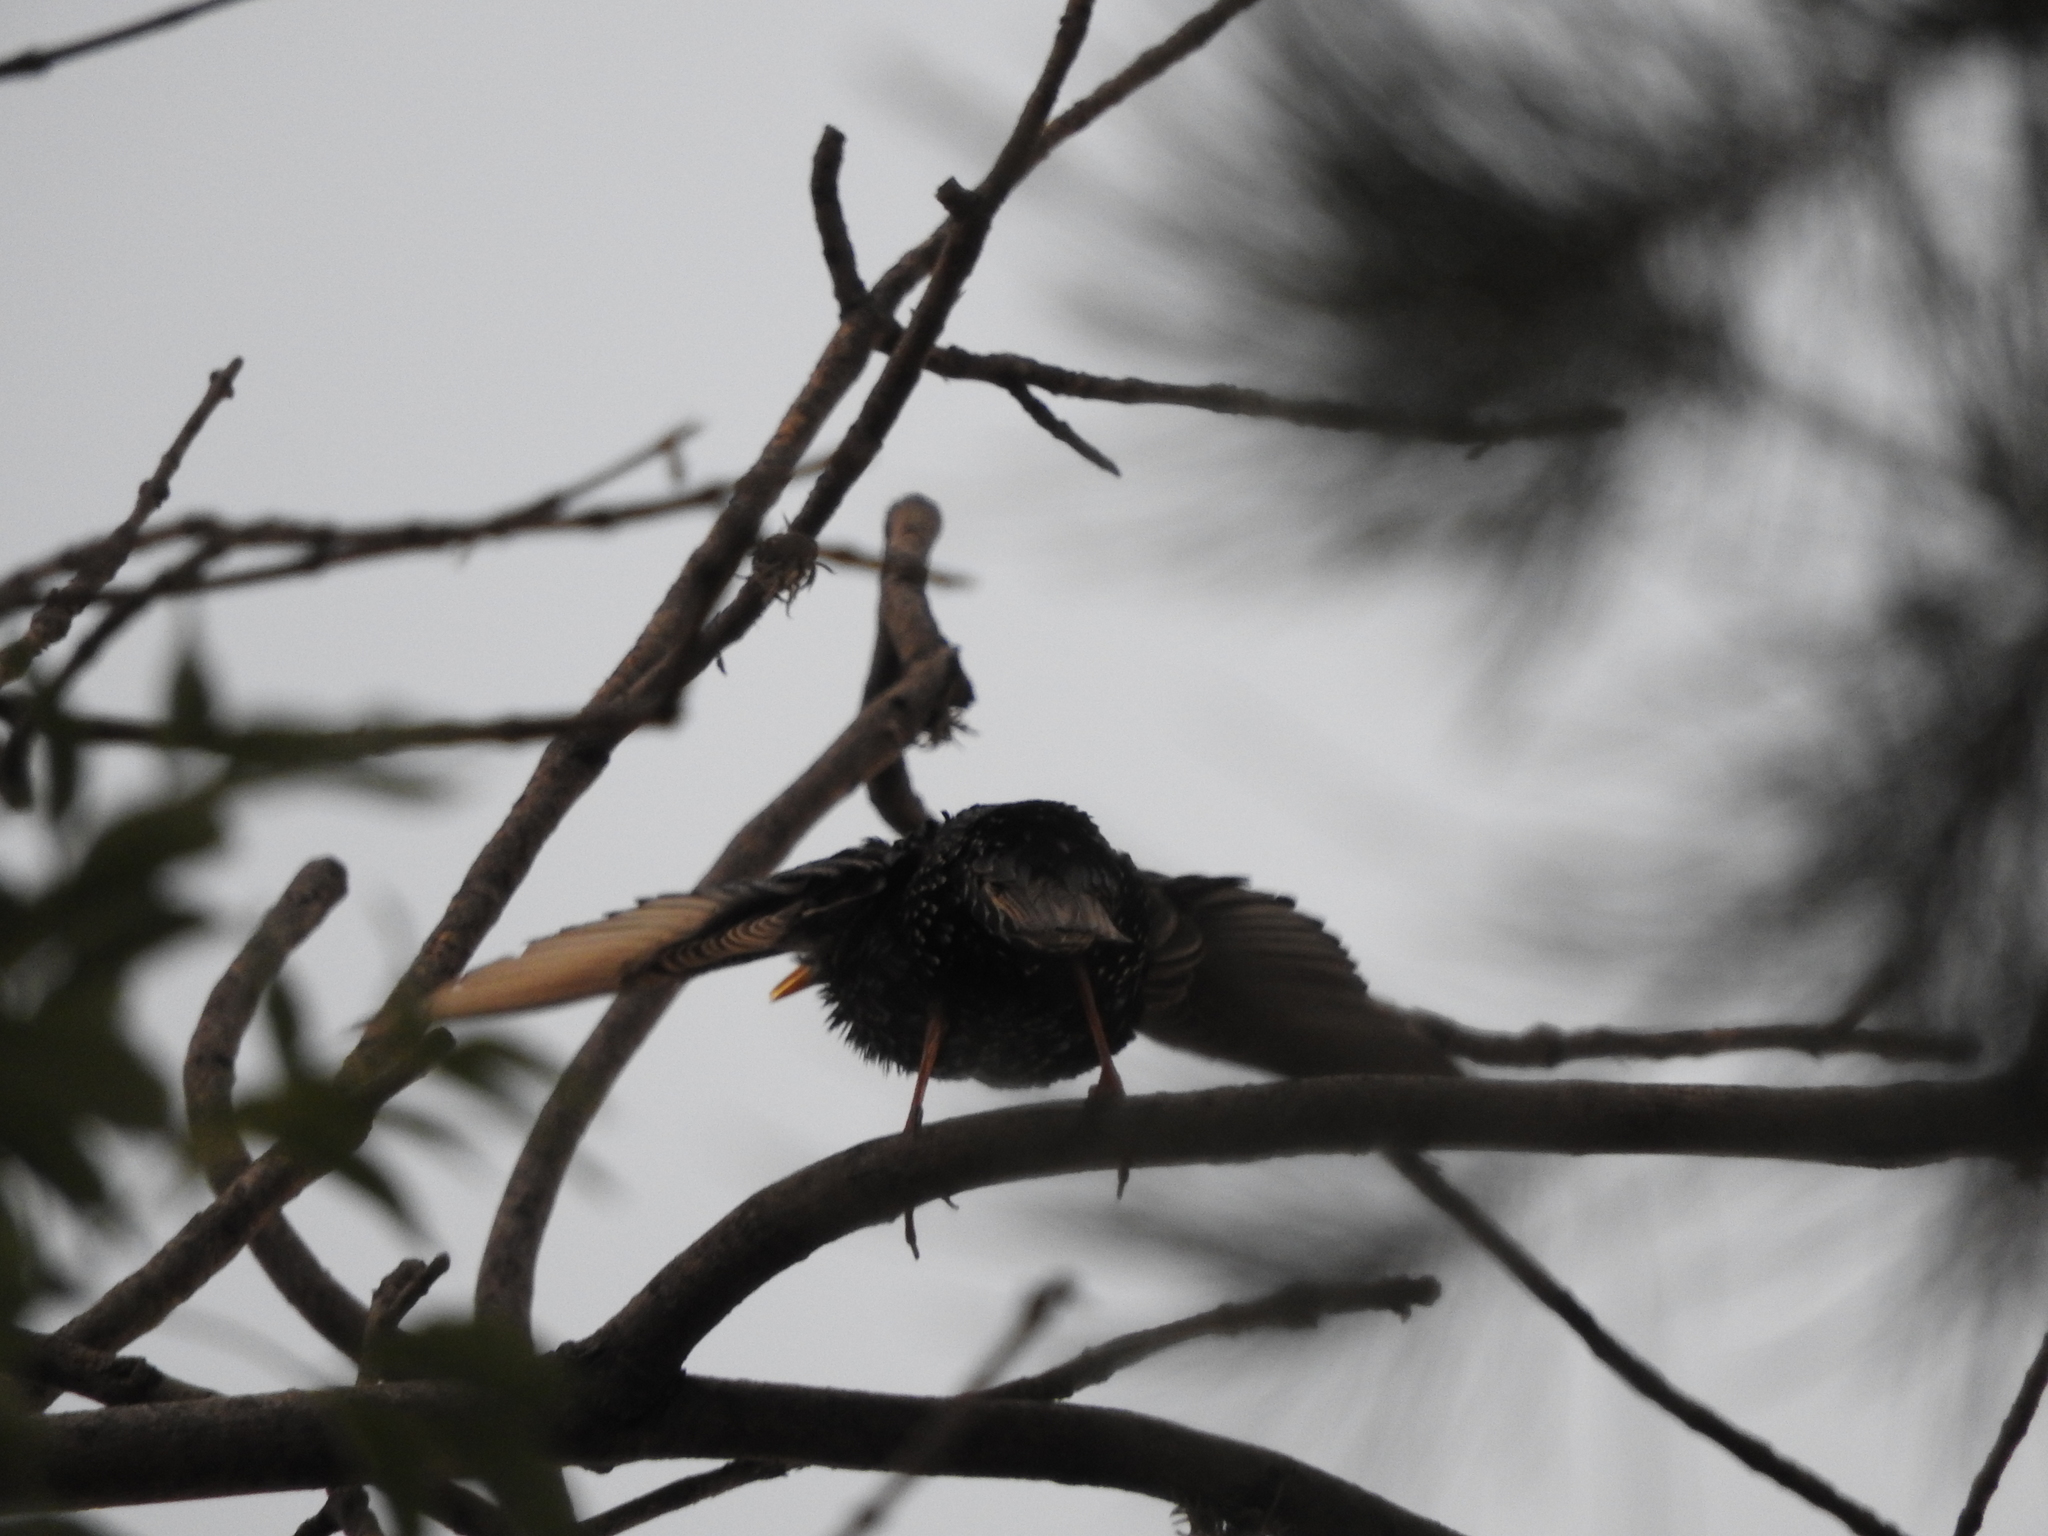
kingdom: Animalia
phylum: Chordata
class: Aves
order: Passeriformes
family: Sturnidae
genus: Sturnus
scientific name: Sturnus vulgaris
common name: Common starling
